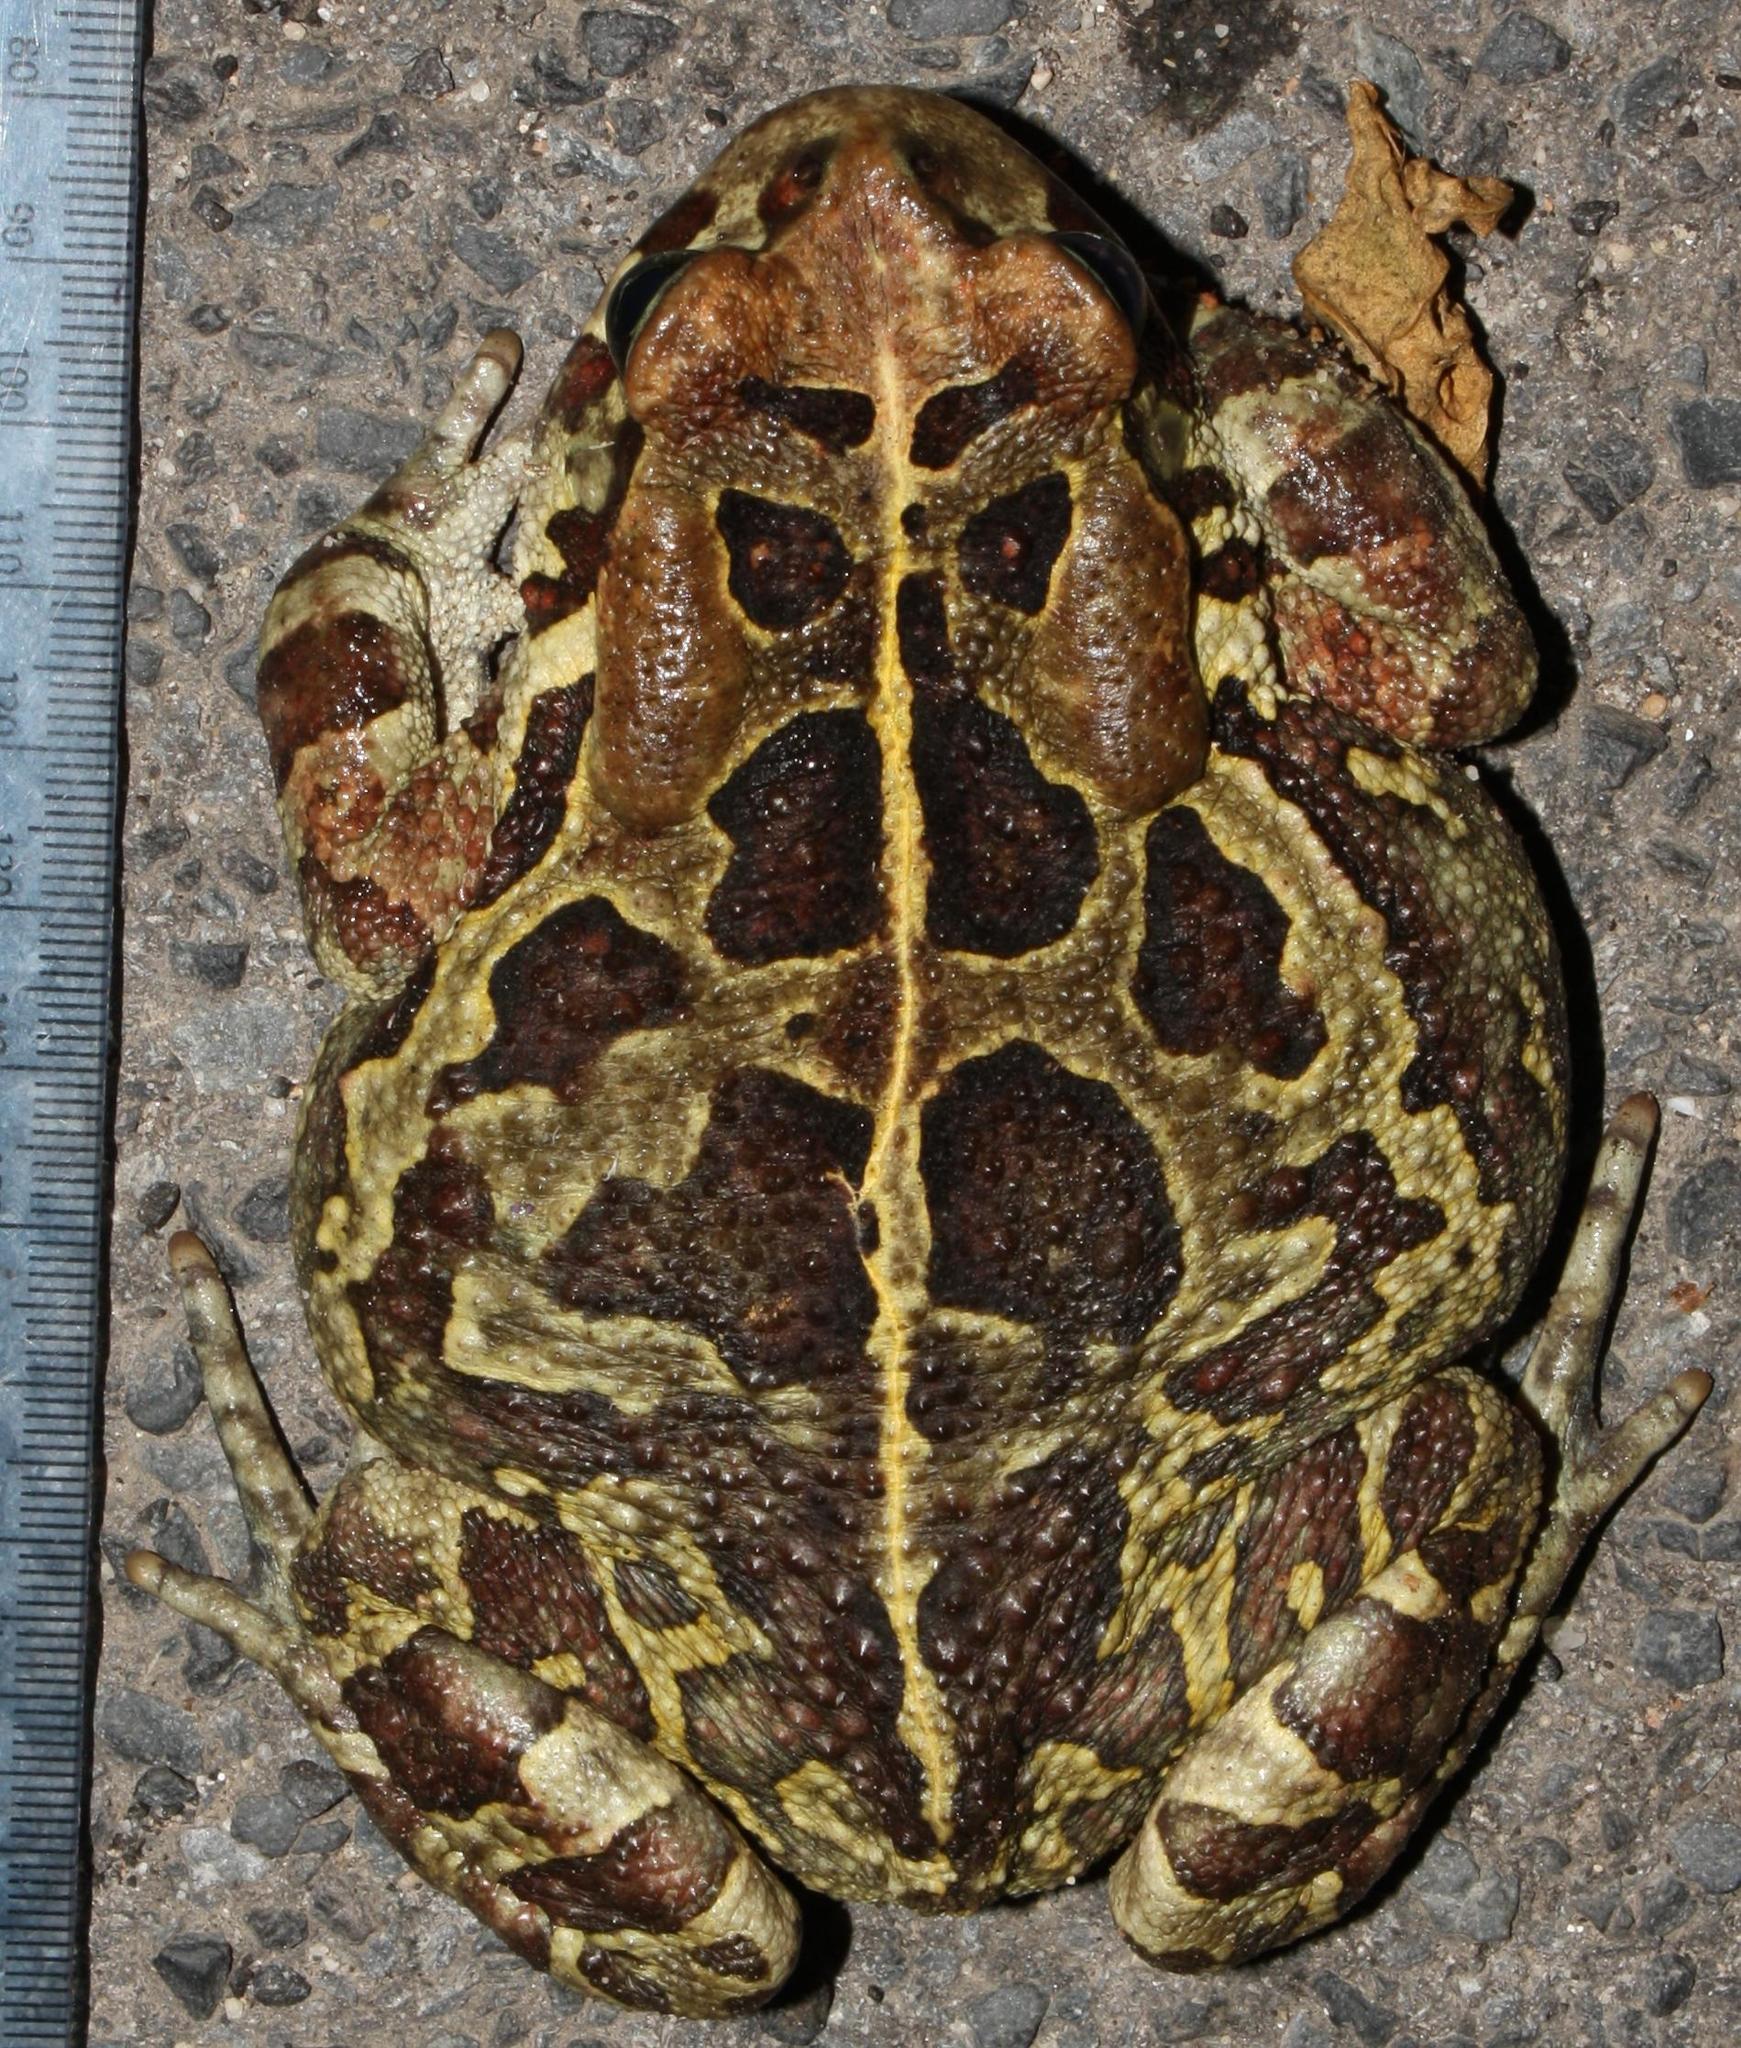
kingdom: Animalia
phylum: Chordata
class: Amphibia
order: Anura
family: Bufonidae
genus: Sclerophrys
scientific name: Sclerophrys pantherina
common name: Panther toad
